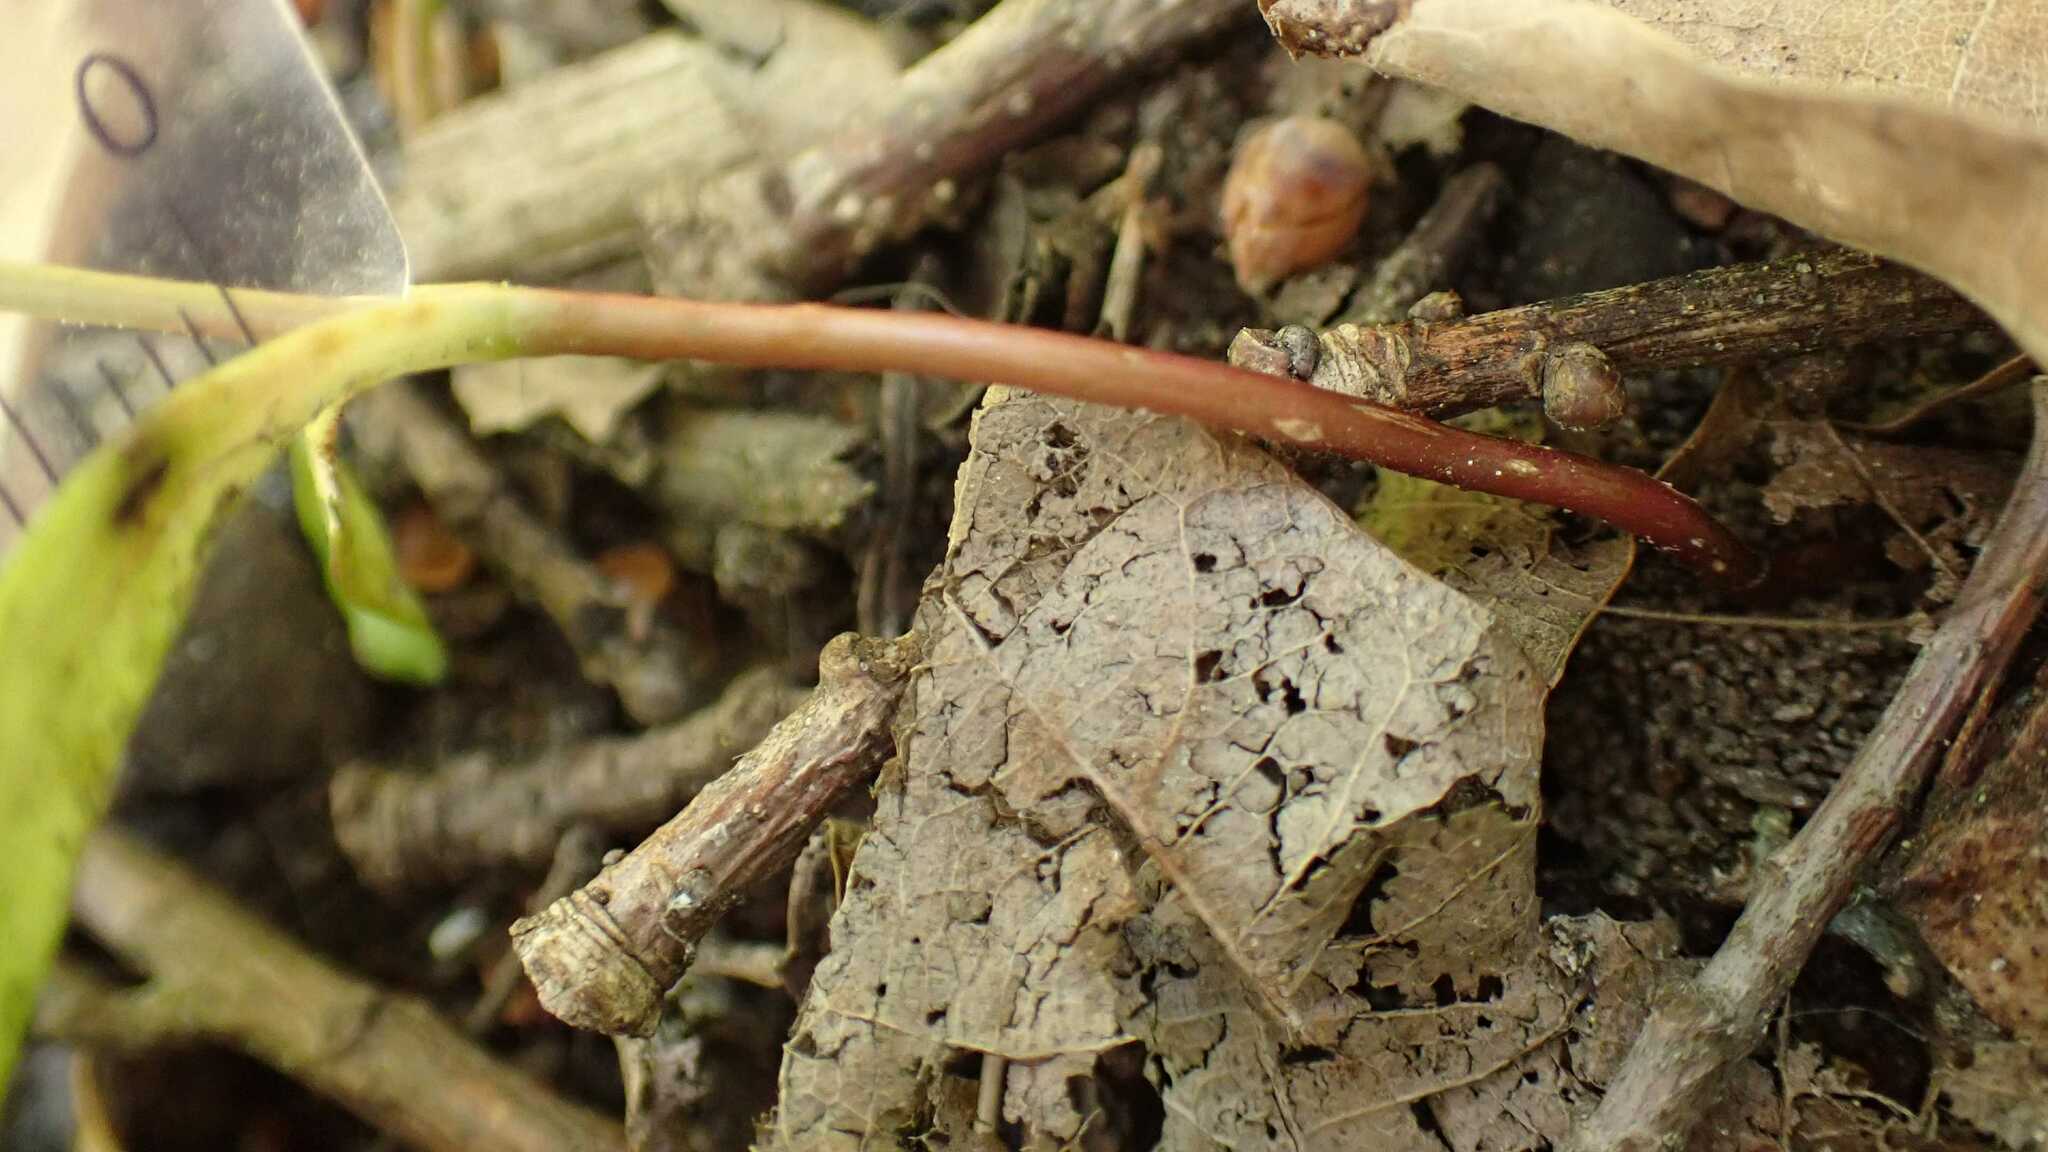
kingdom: Plantae
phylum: Tracheophyta
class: Magnoliopsida
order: Sapindales
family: Sapindaceae
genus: Acer
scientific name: Acer platanoides
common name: Norway maple
